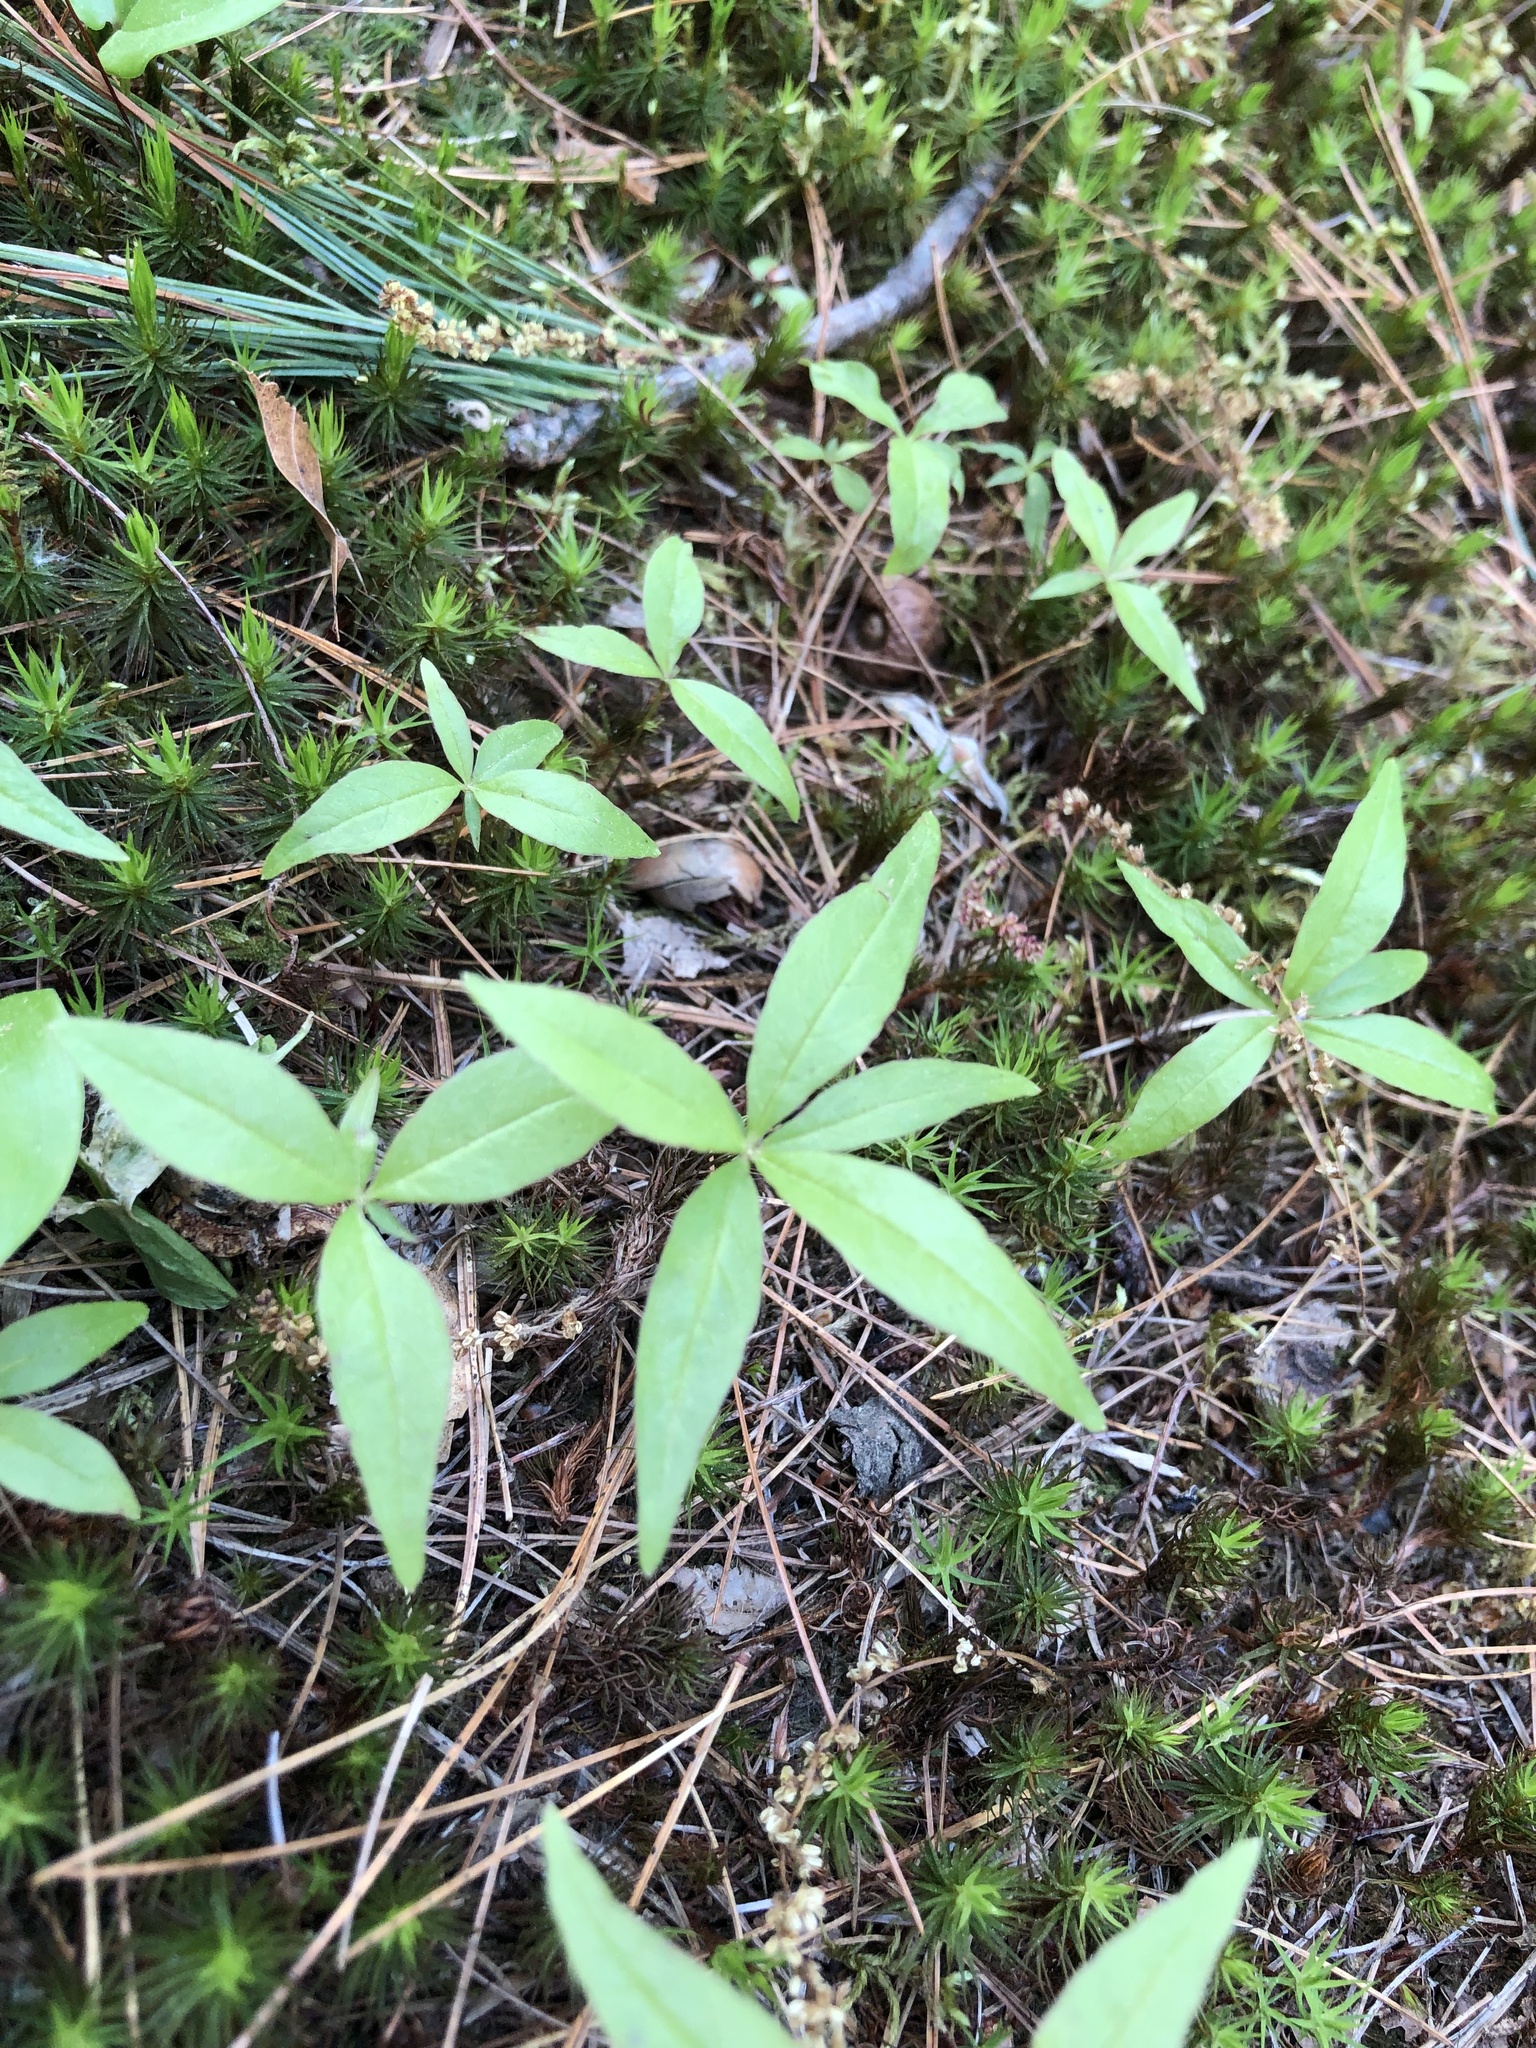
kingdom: Plantae
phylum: Tracheophyta
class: Magnoliopsida
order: Ericales
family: Primulaceae
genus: Lysimachia
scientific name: Lysimachia borealis
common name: American starflower
